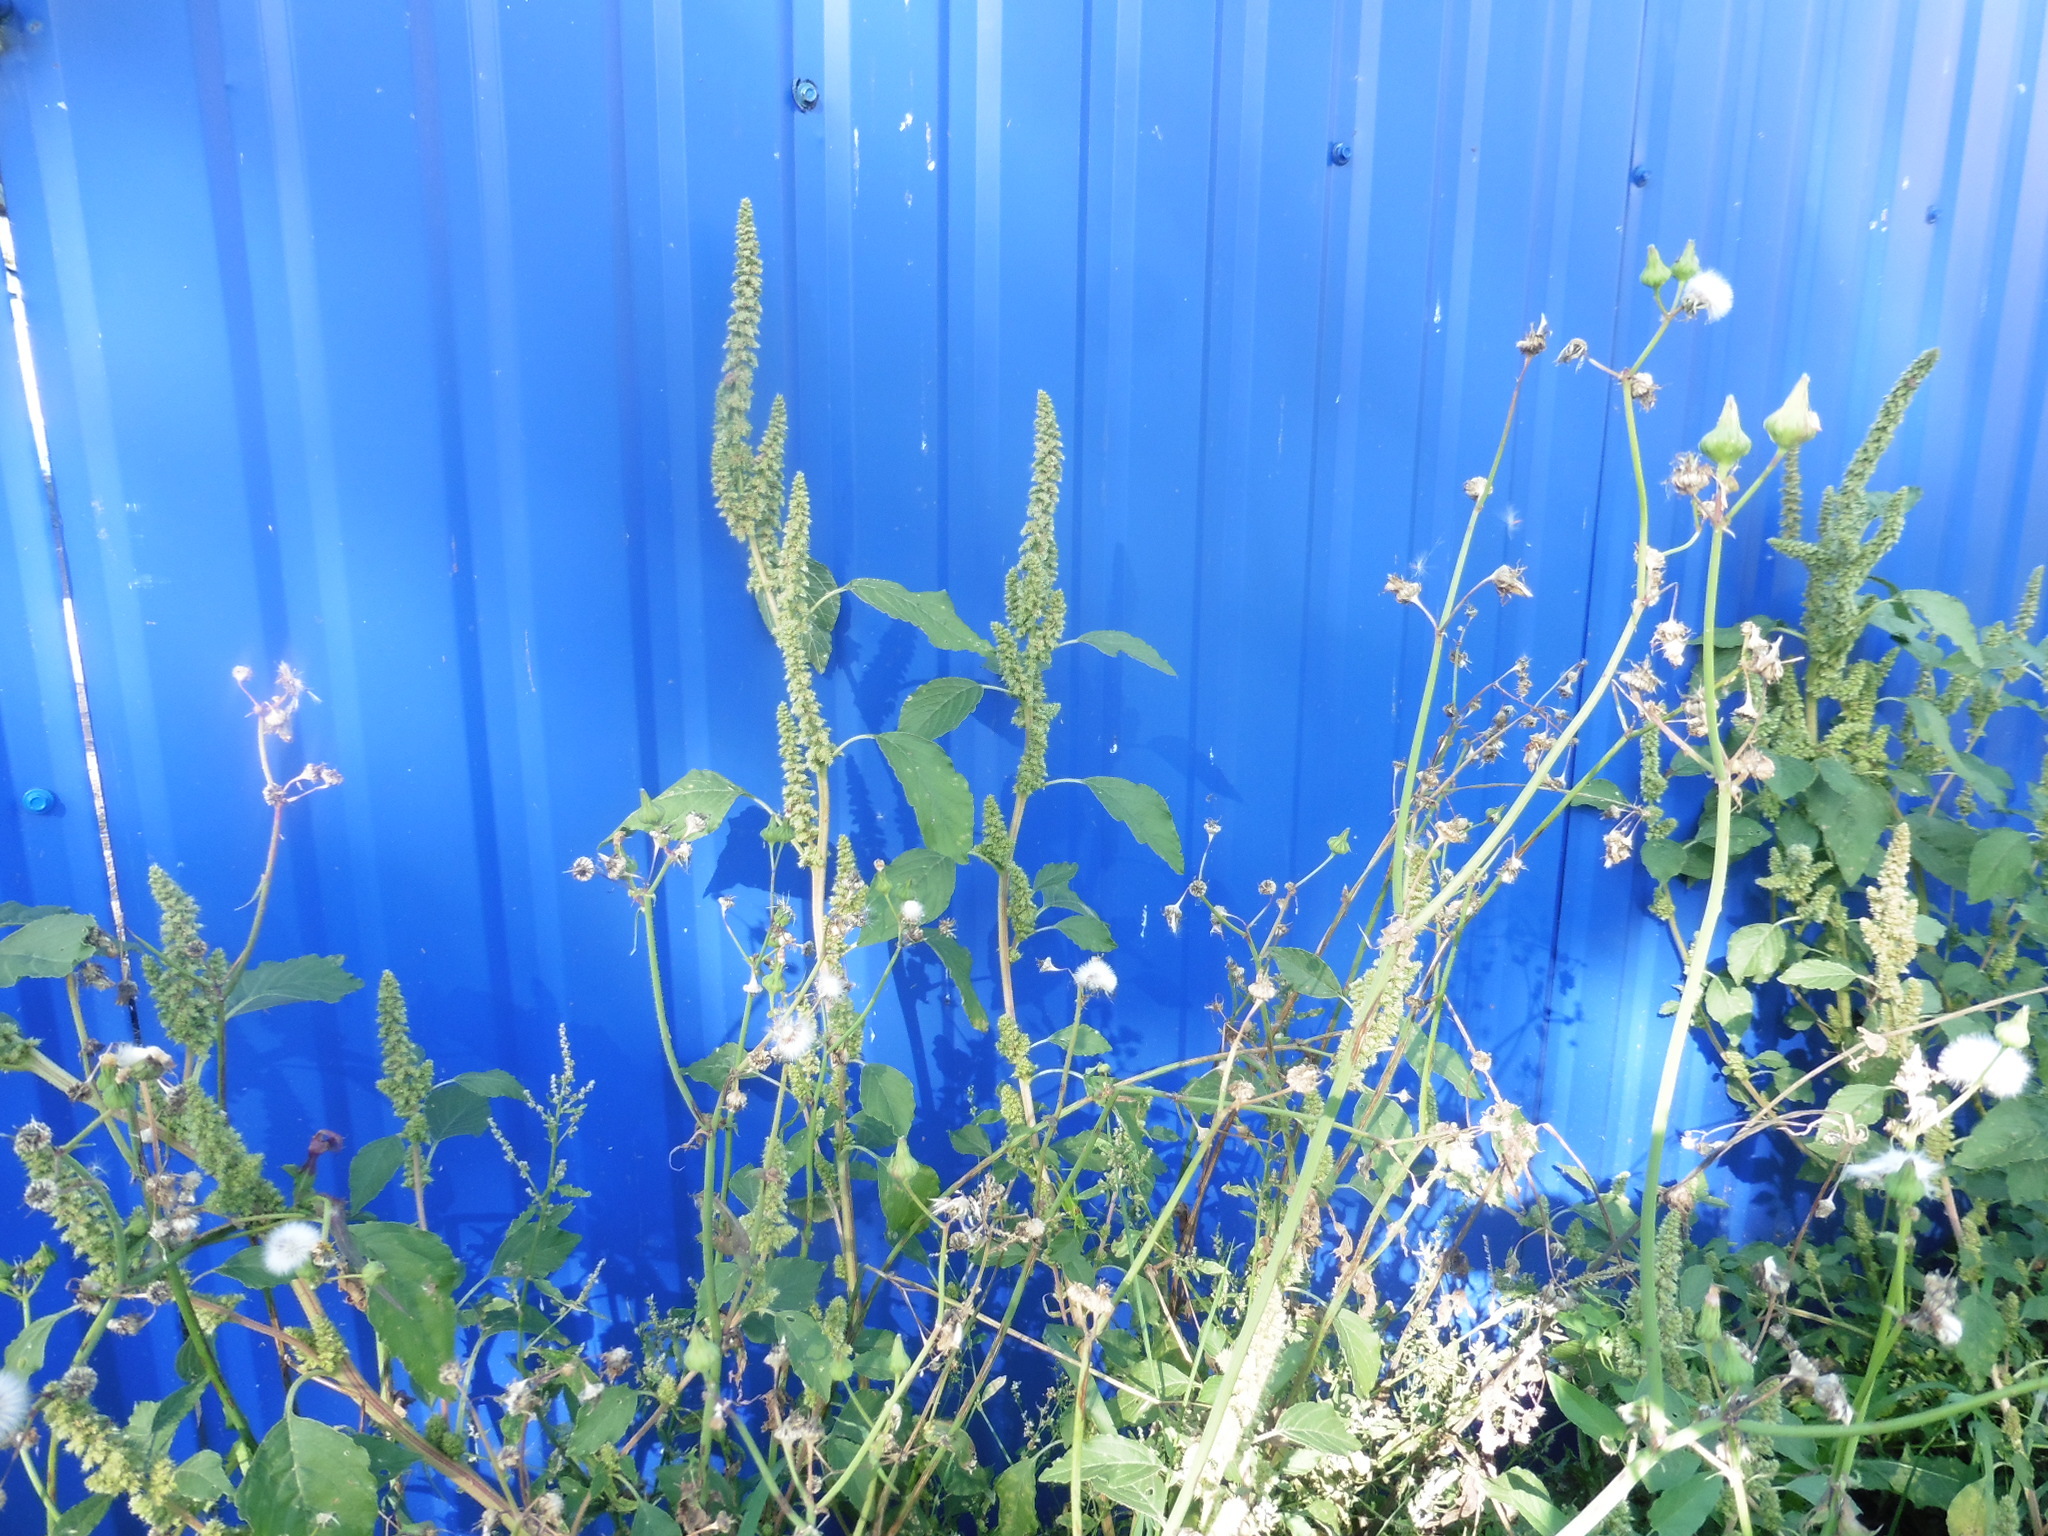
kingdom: Plantae
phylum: Tracheophyta
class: Magnoliopsida
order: Caryophyllales
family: Amaranthaceae
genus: Amaranthus
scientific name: Amaranthus retroflexus
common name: Redroot amaranth
